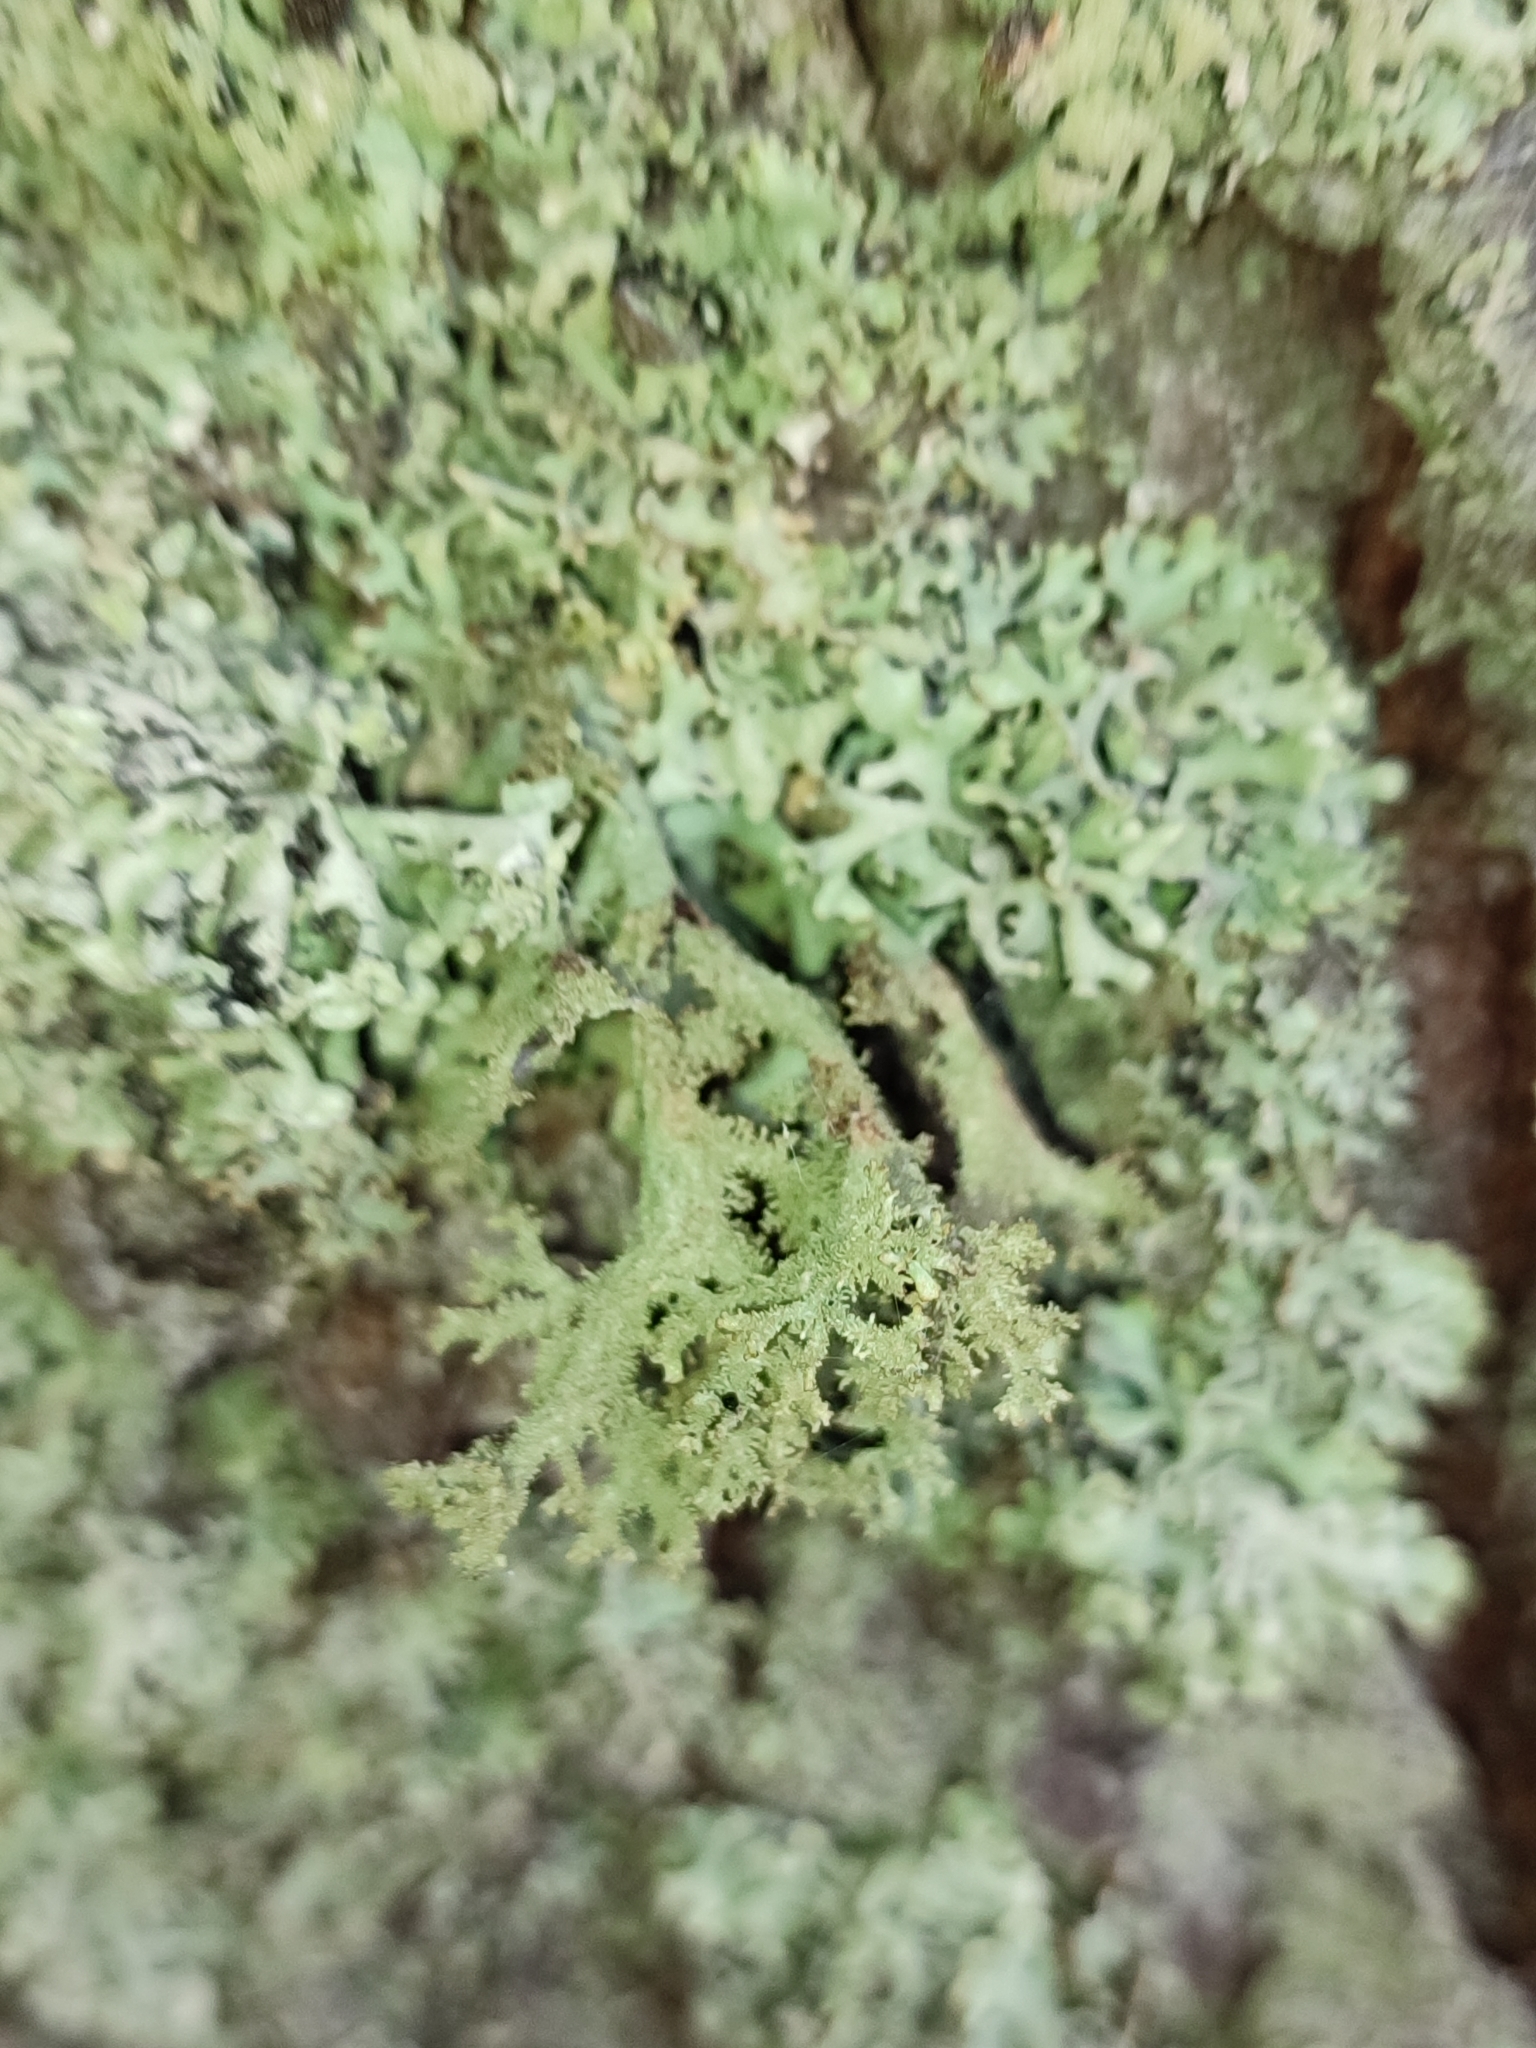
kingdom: Fungi
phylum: Ascomycota
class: Lecanoromycetes
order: Lecanorales
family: Parmeliaceae
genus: Pseudevernia
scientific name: Pseudevernia furfuracea
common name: Tree moss
